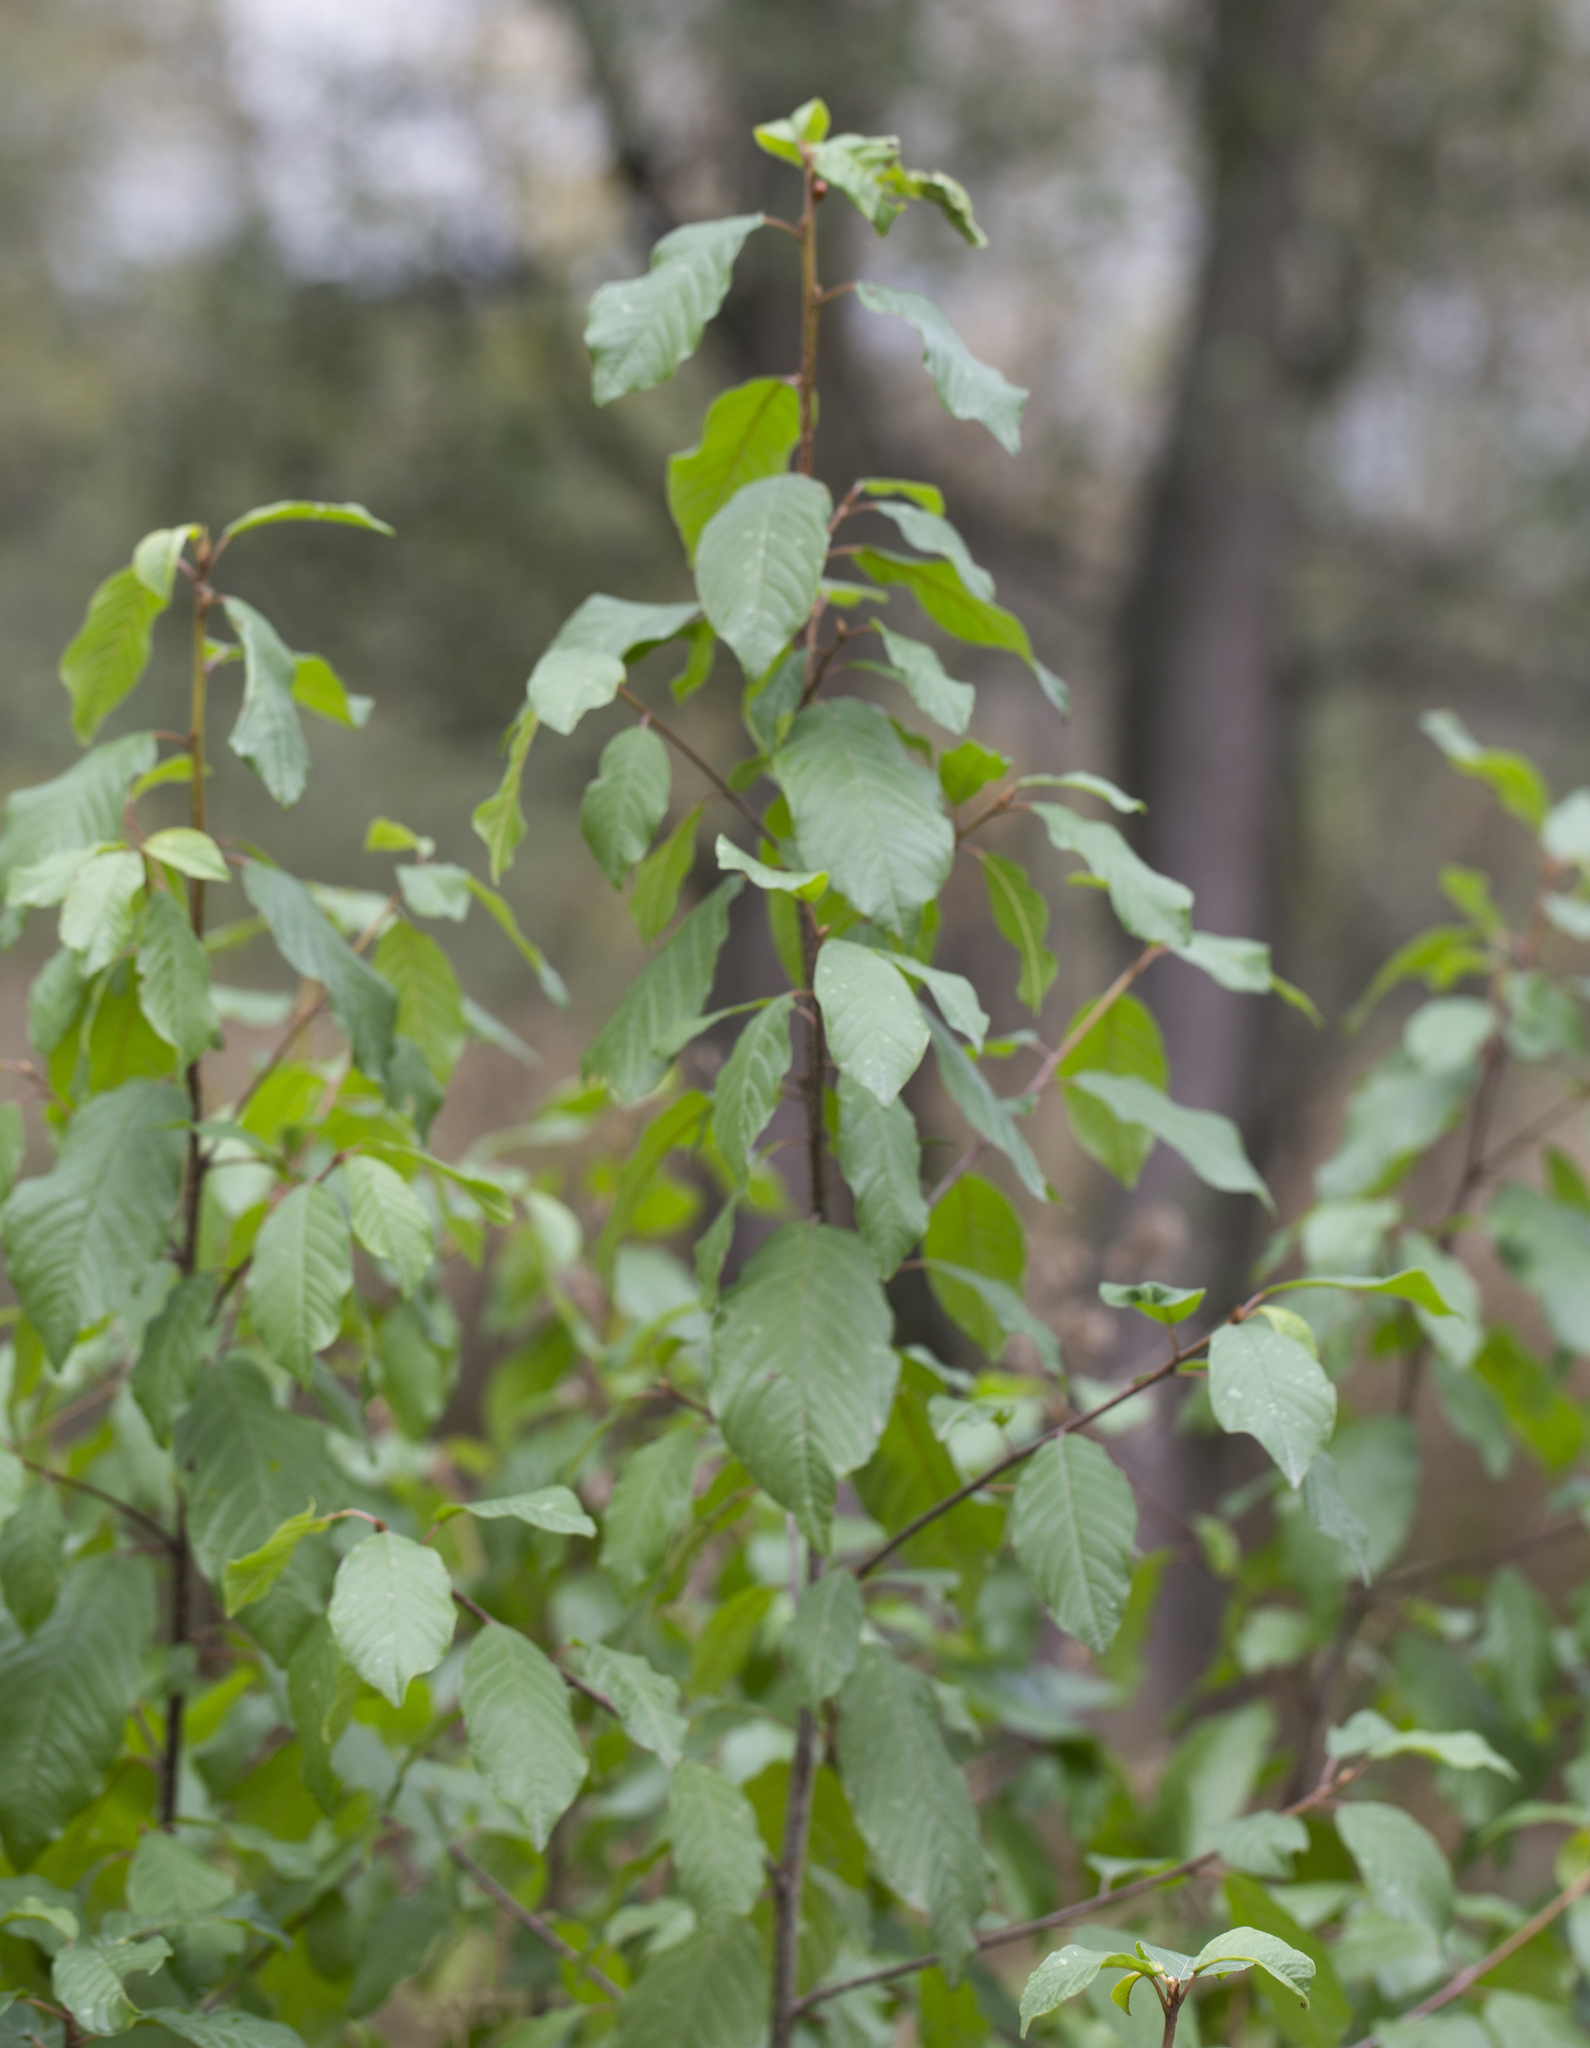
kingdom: Plantae
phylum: Tracheophyta
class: Magnoliopsida
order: Rosales
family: Rhamnaceae
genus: Frangula
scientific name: Frangula alnus
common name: Alder buckthorn
